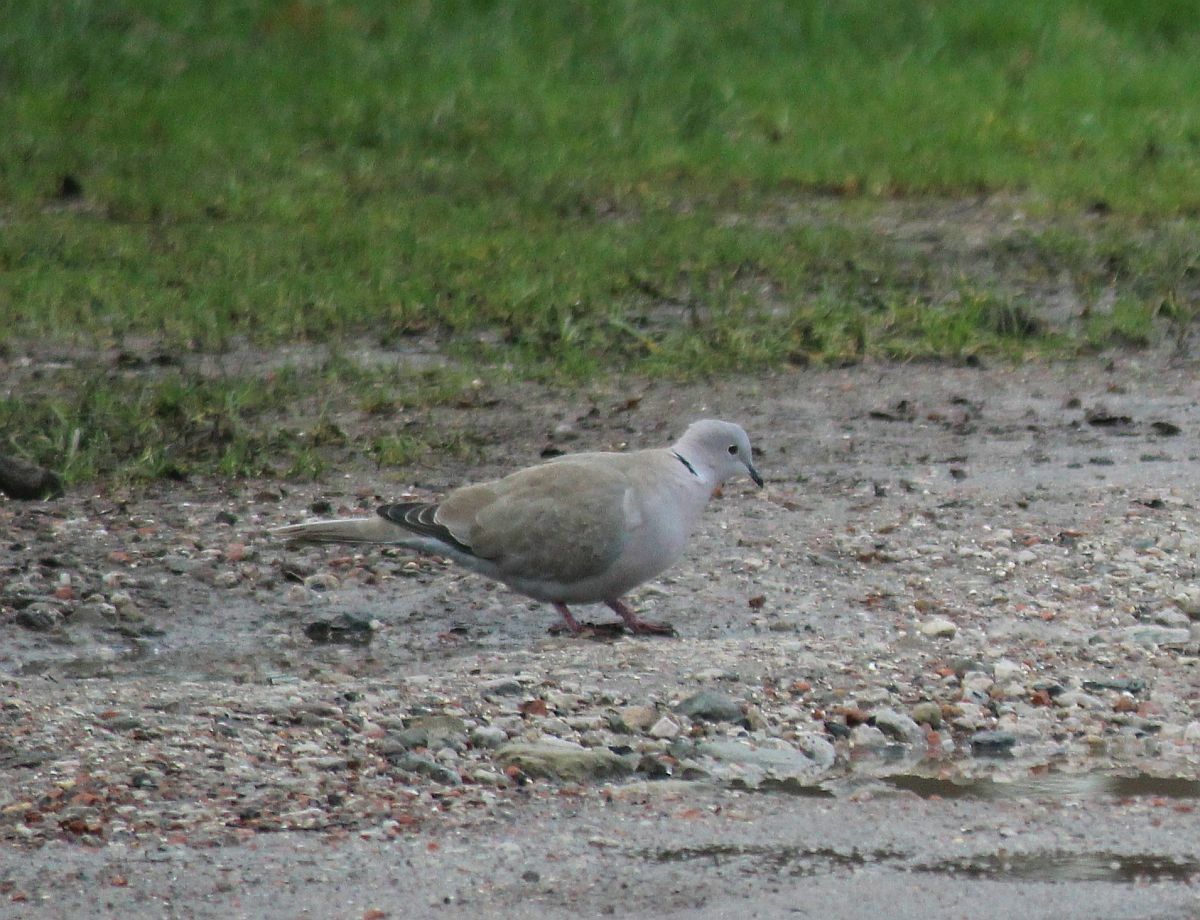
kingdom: Animalia
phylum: Chordata
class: Aves
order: Columbiformes
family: Columbidae
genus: Streptopelia
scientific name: Streptopelia decaocto
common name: Eurasian collared dove
